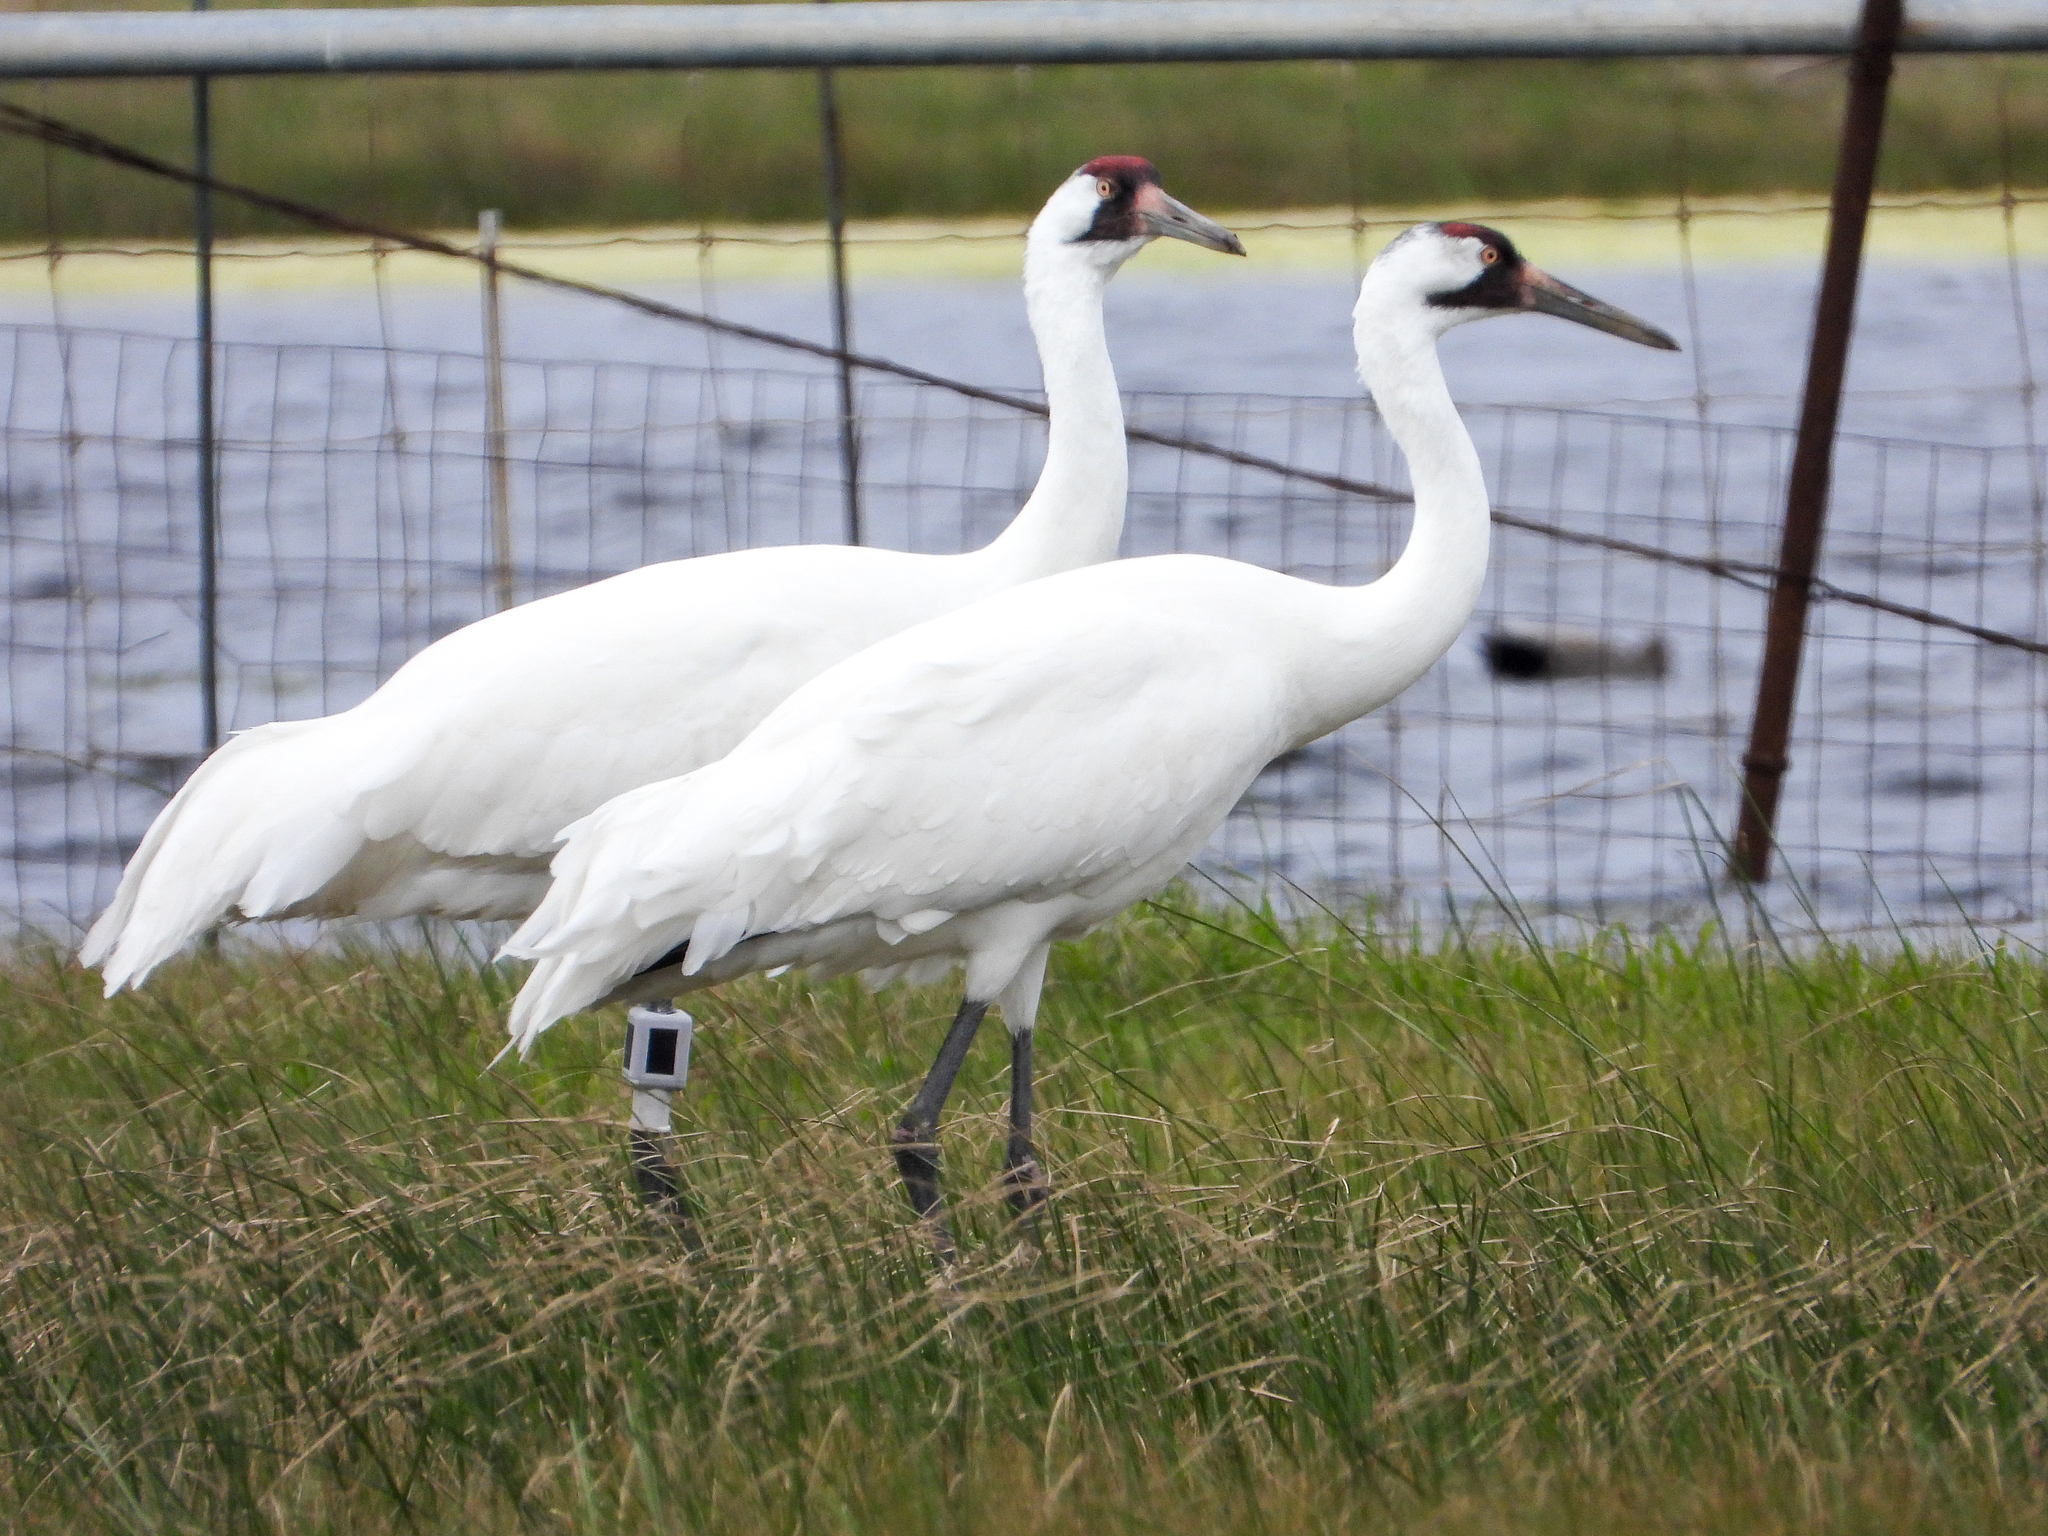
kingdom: Animalia
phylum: Chordata
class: Aves
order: Gruiformes
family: Gruidae
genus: Grus
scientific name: Grus americana
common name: Whooping crane
